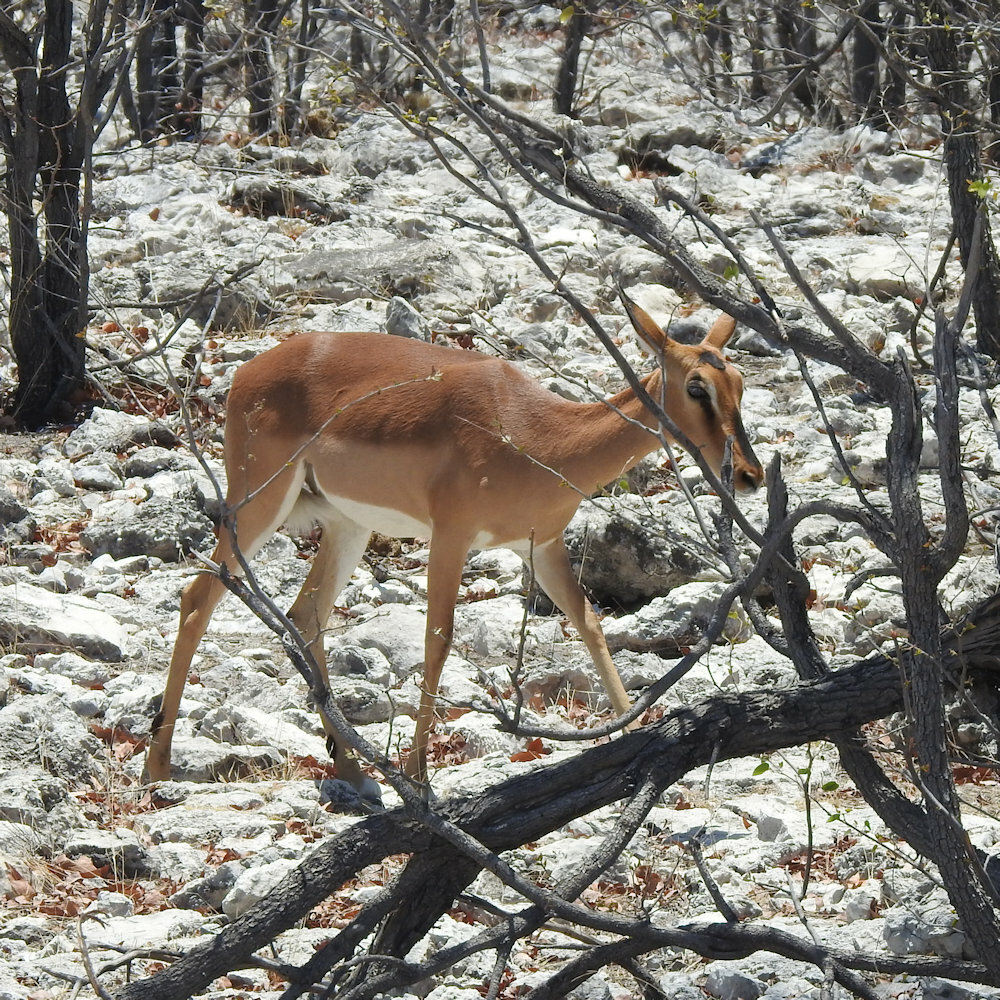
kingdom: Animalia
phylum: Chordata
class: Mammalia
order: Artiodactyla
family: Bovidae
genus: Aepyceros
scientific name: Aepyceros melampus
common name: Impala
